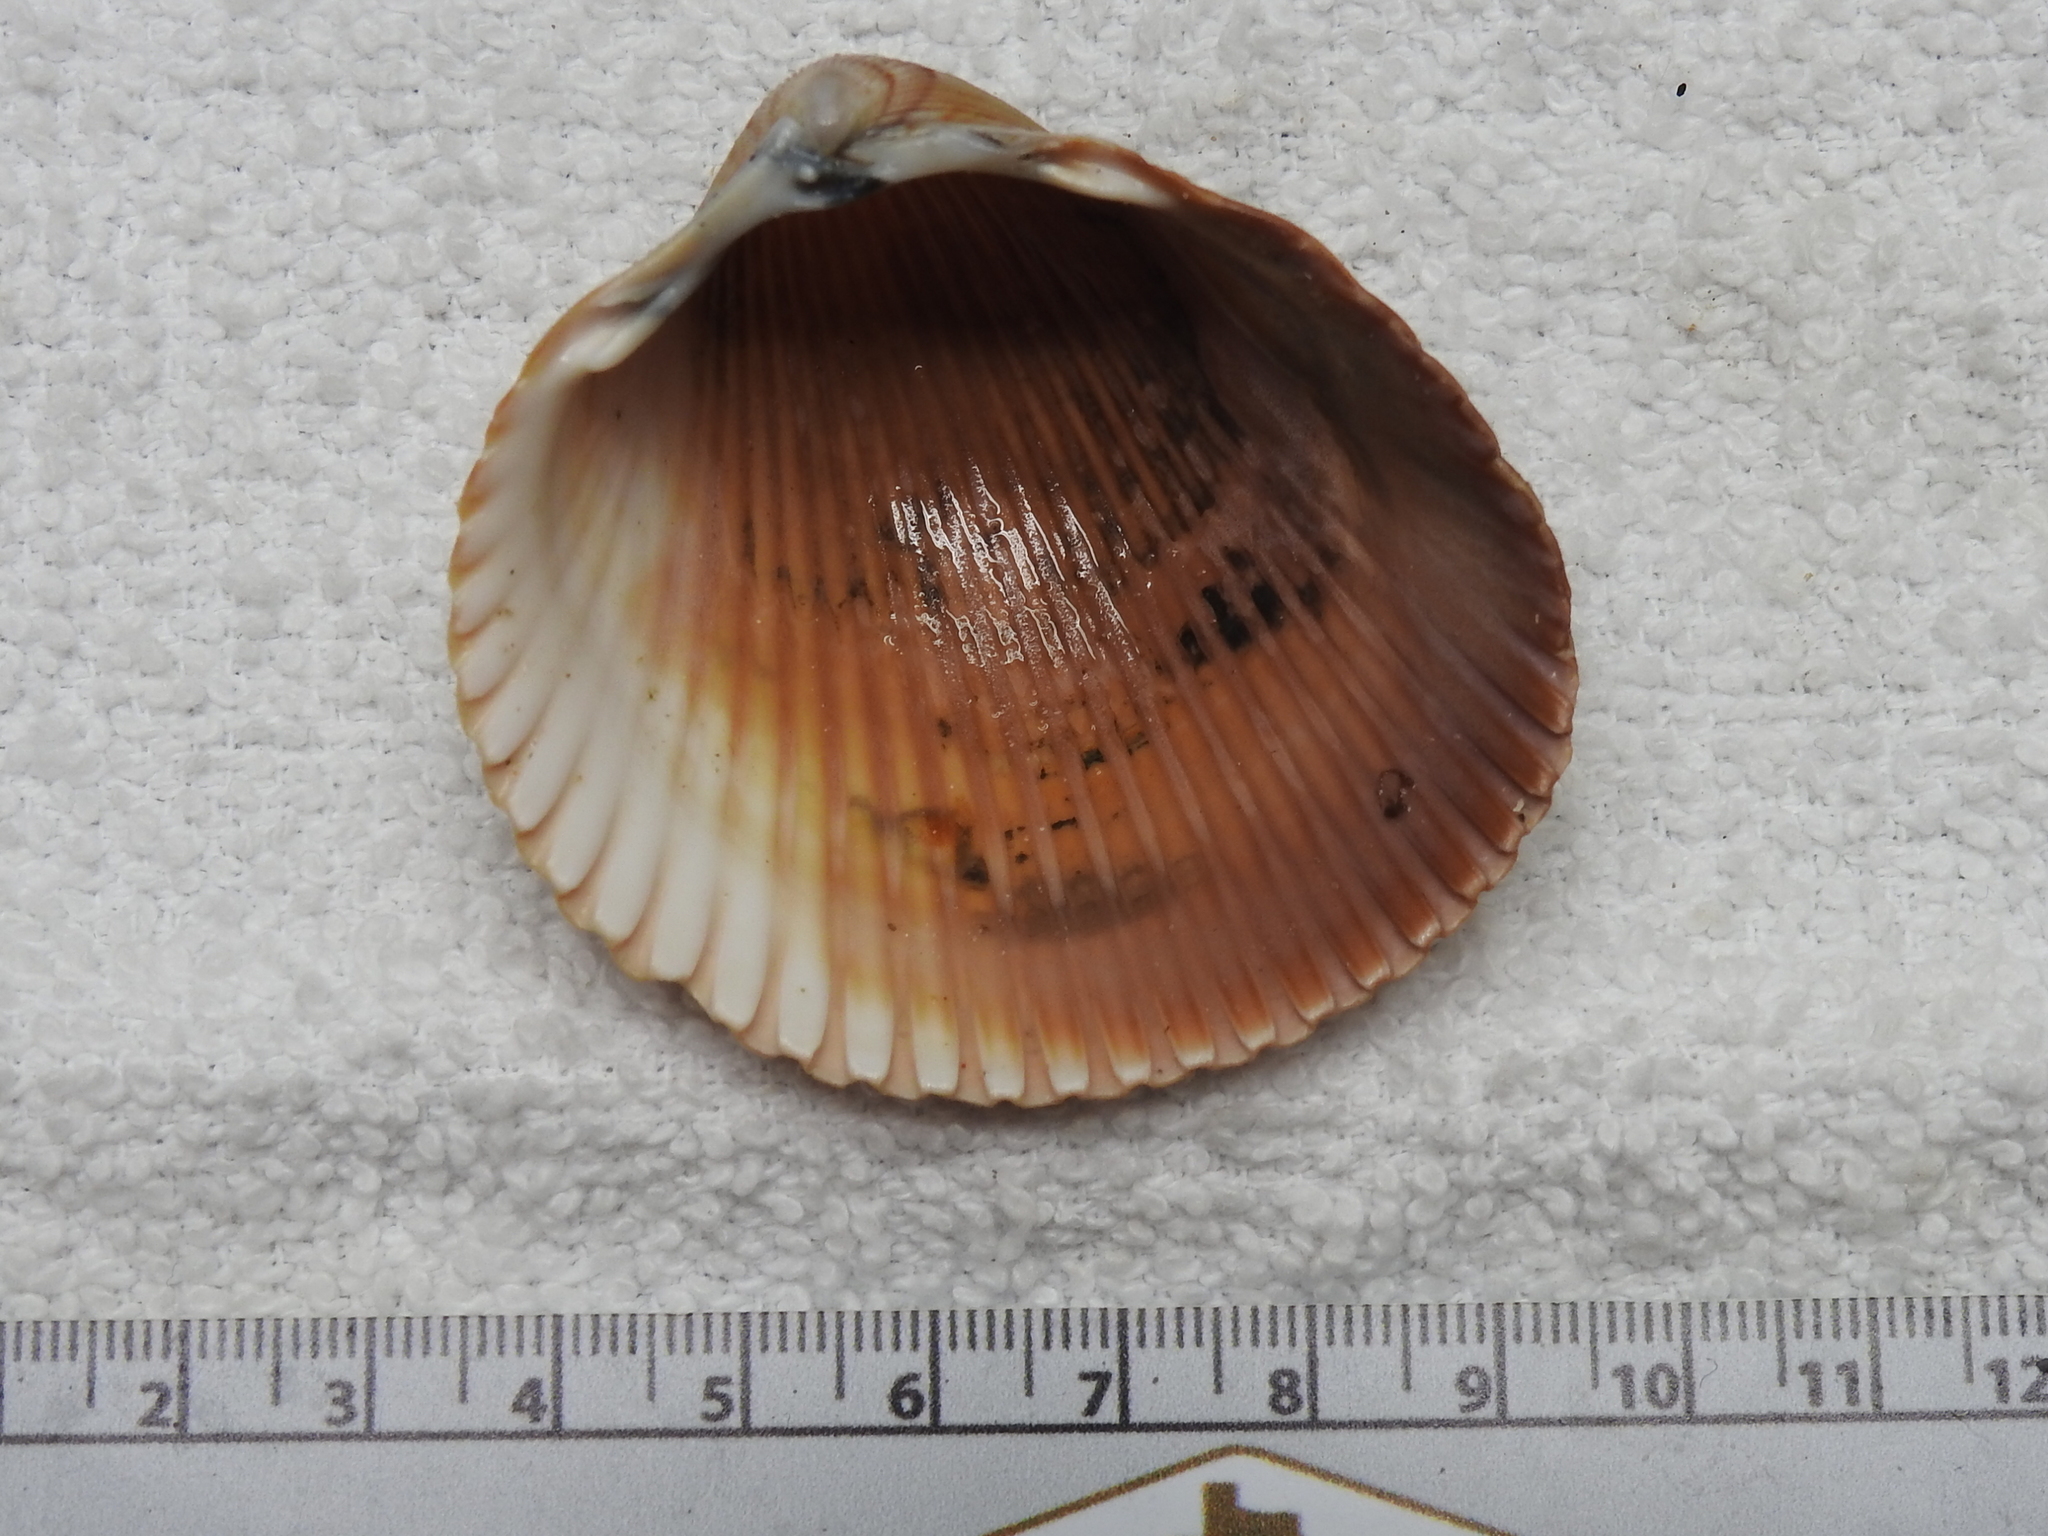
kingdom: Animalia
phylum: Mollusca
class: Bivalvia
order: Cardiida
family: Cardiidae
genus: Dinocardium
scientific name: Dinocardium robustum
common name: Atlantic giant cockle
